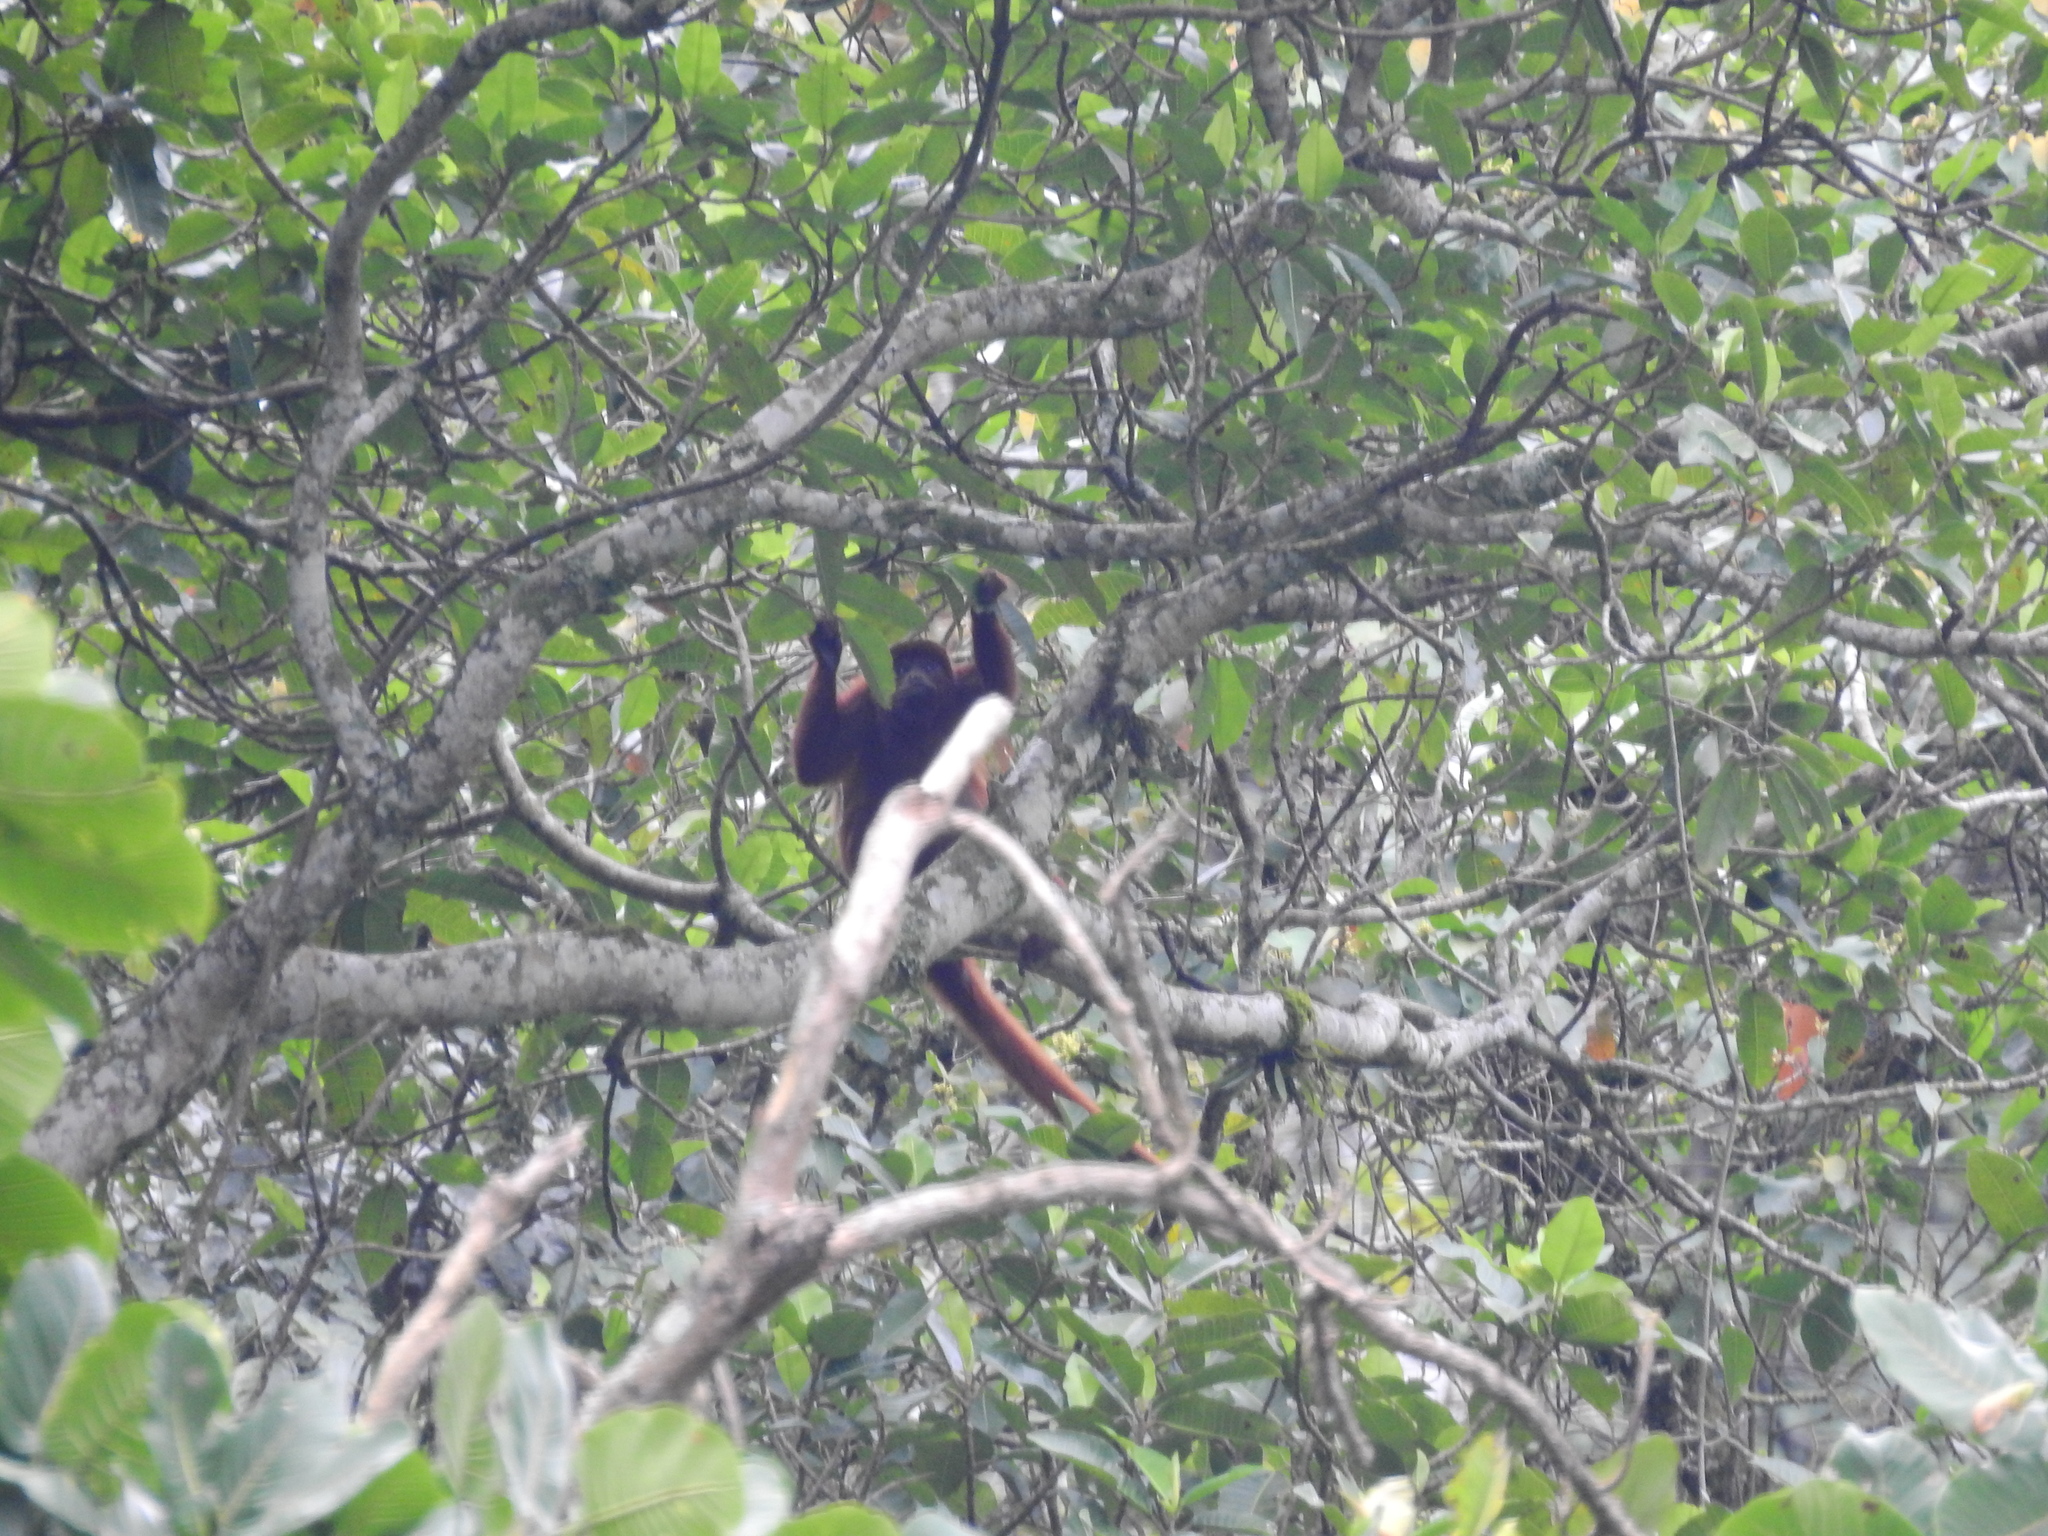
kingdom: Animalia
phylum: Chordata
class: Mammalia
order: Primates
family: Atelidae
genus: Alouatta
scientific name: Alouatta seniculus
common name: Venezuelan red howler
